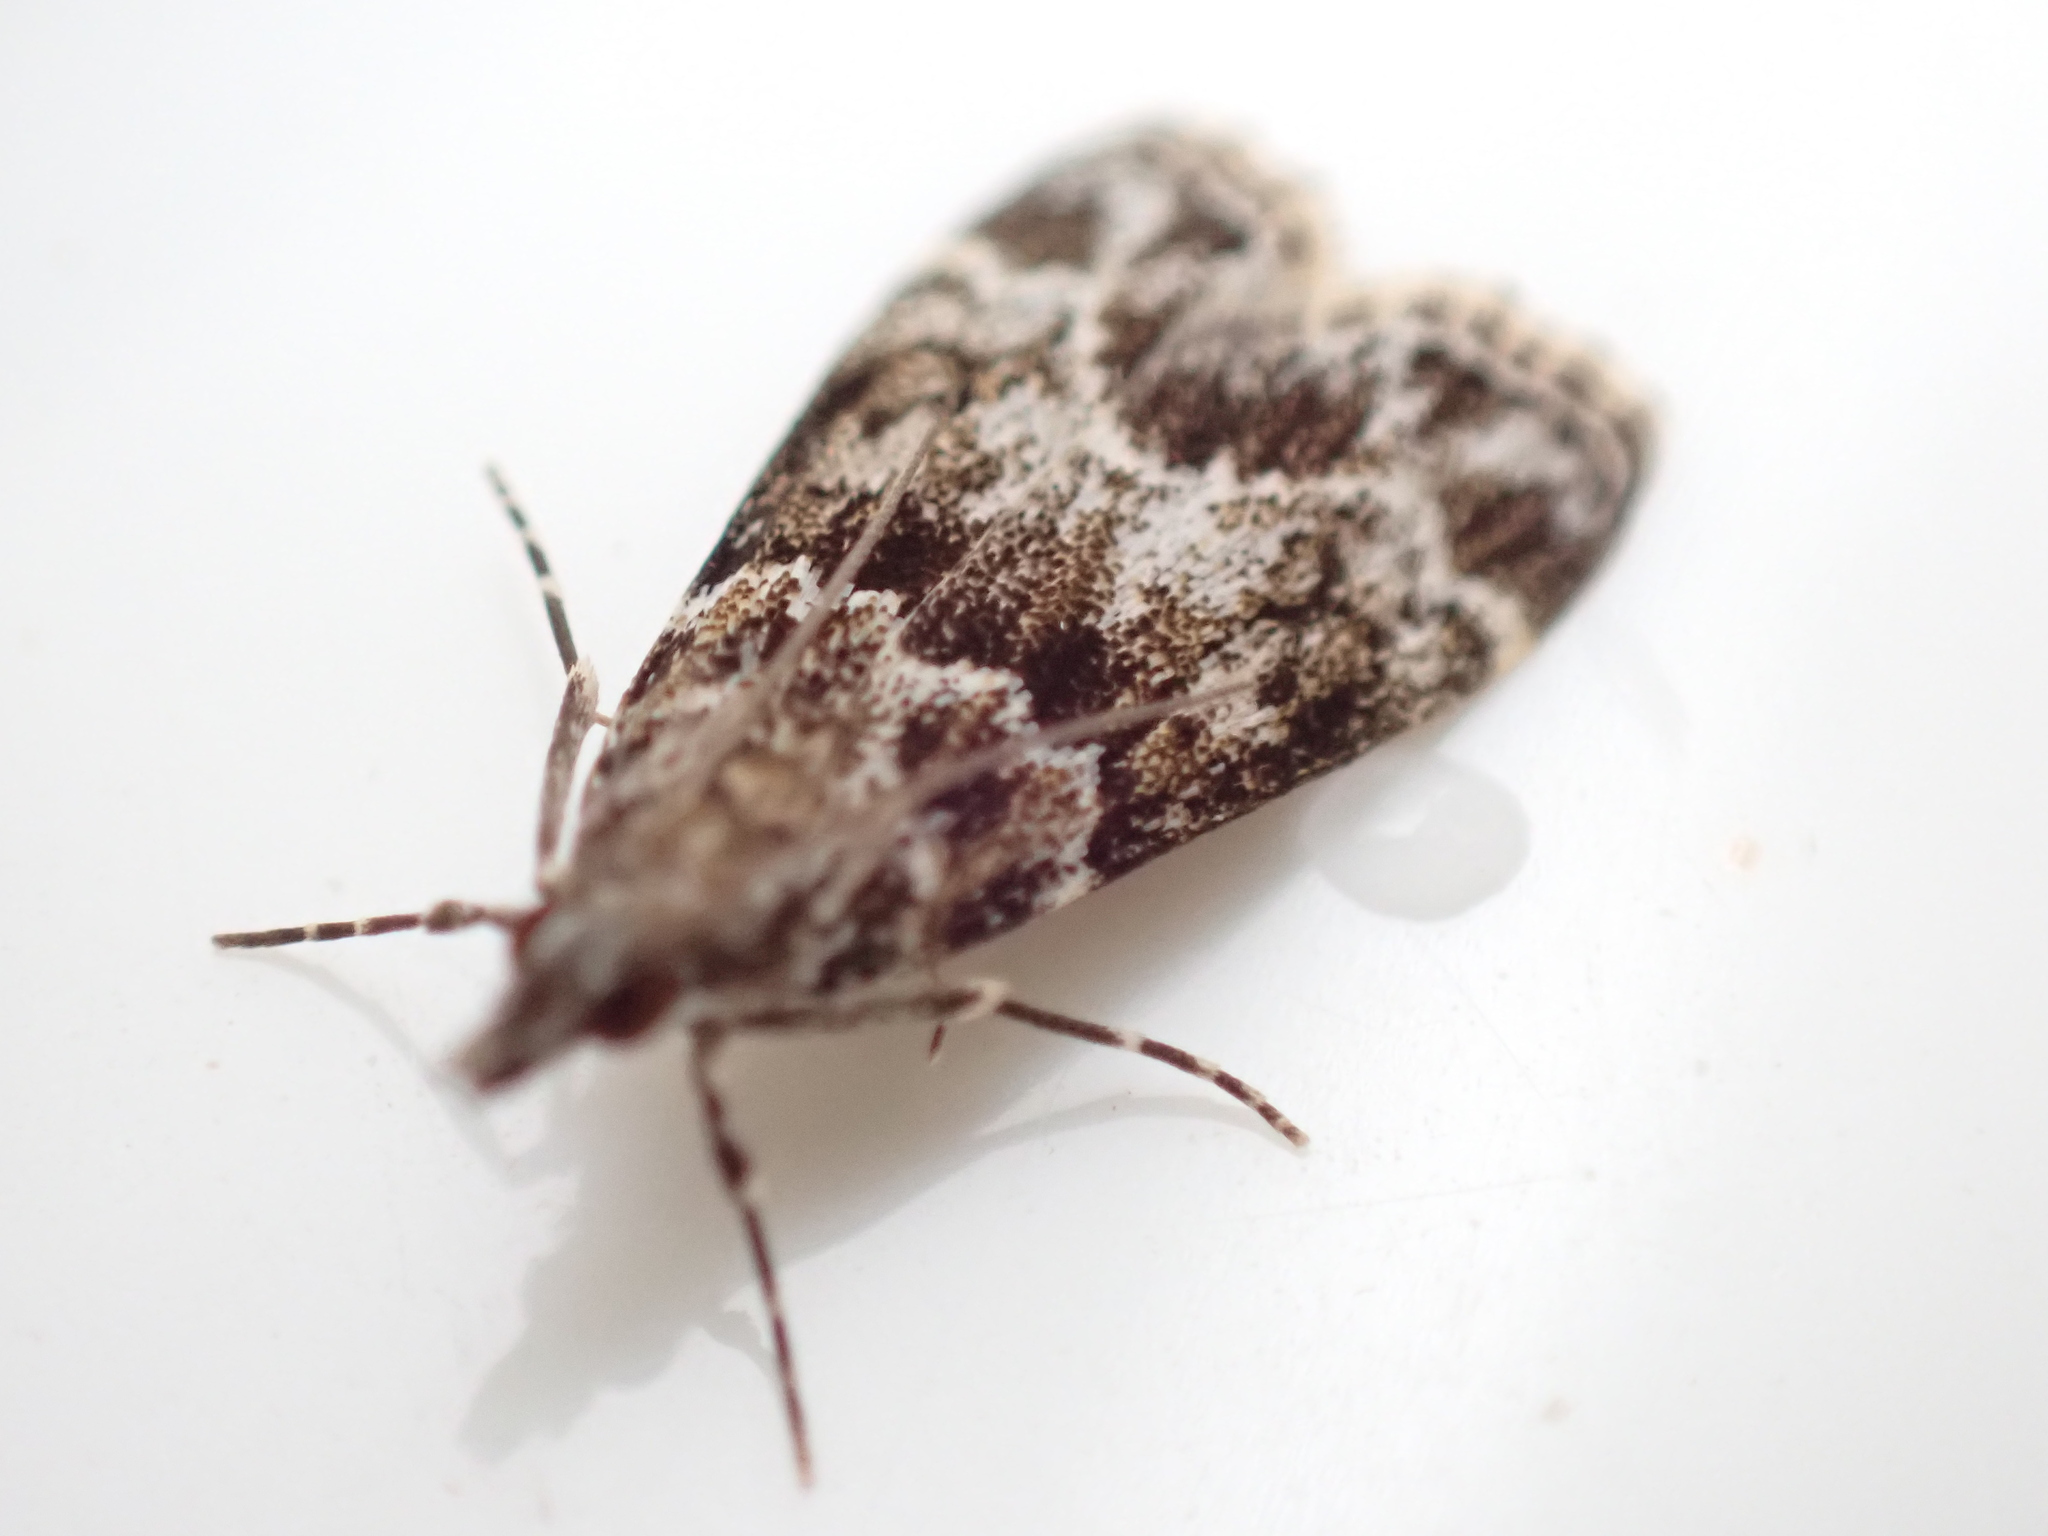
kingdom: Animalia
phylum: Arthropoda
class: Insecta
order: Lepidoptera
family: Crambidae
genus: Eudonia
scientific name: Eudonia mercurella
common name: Small grey
